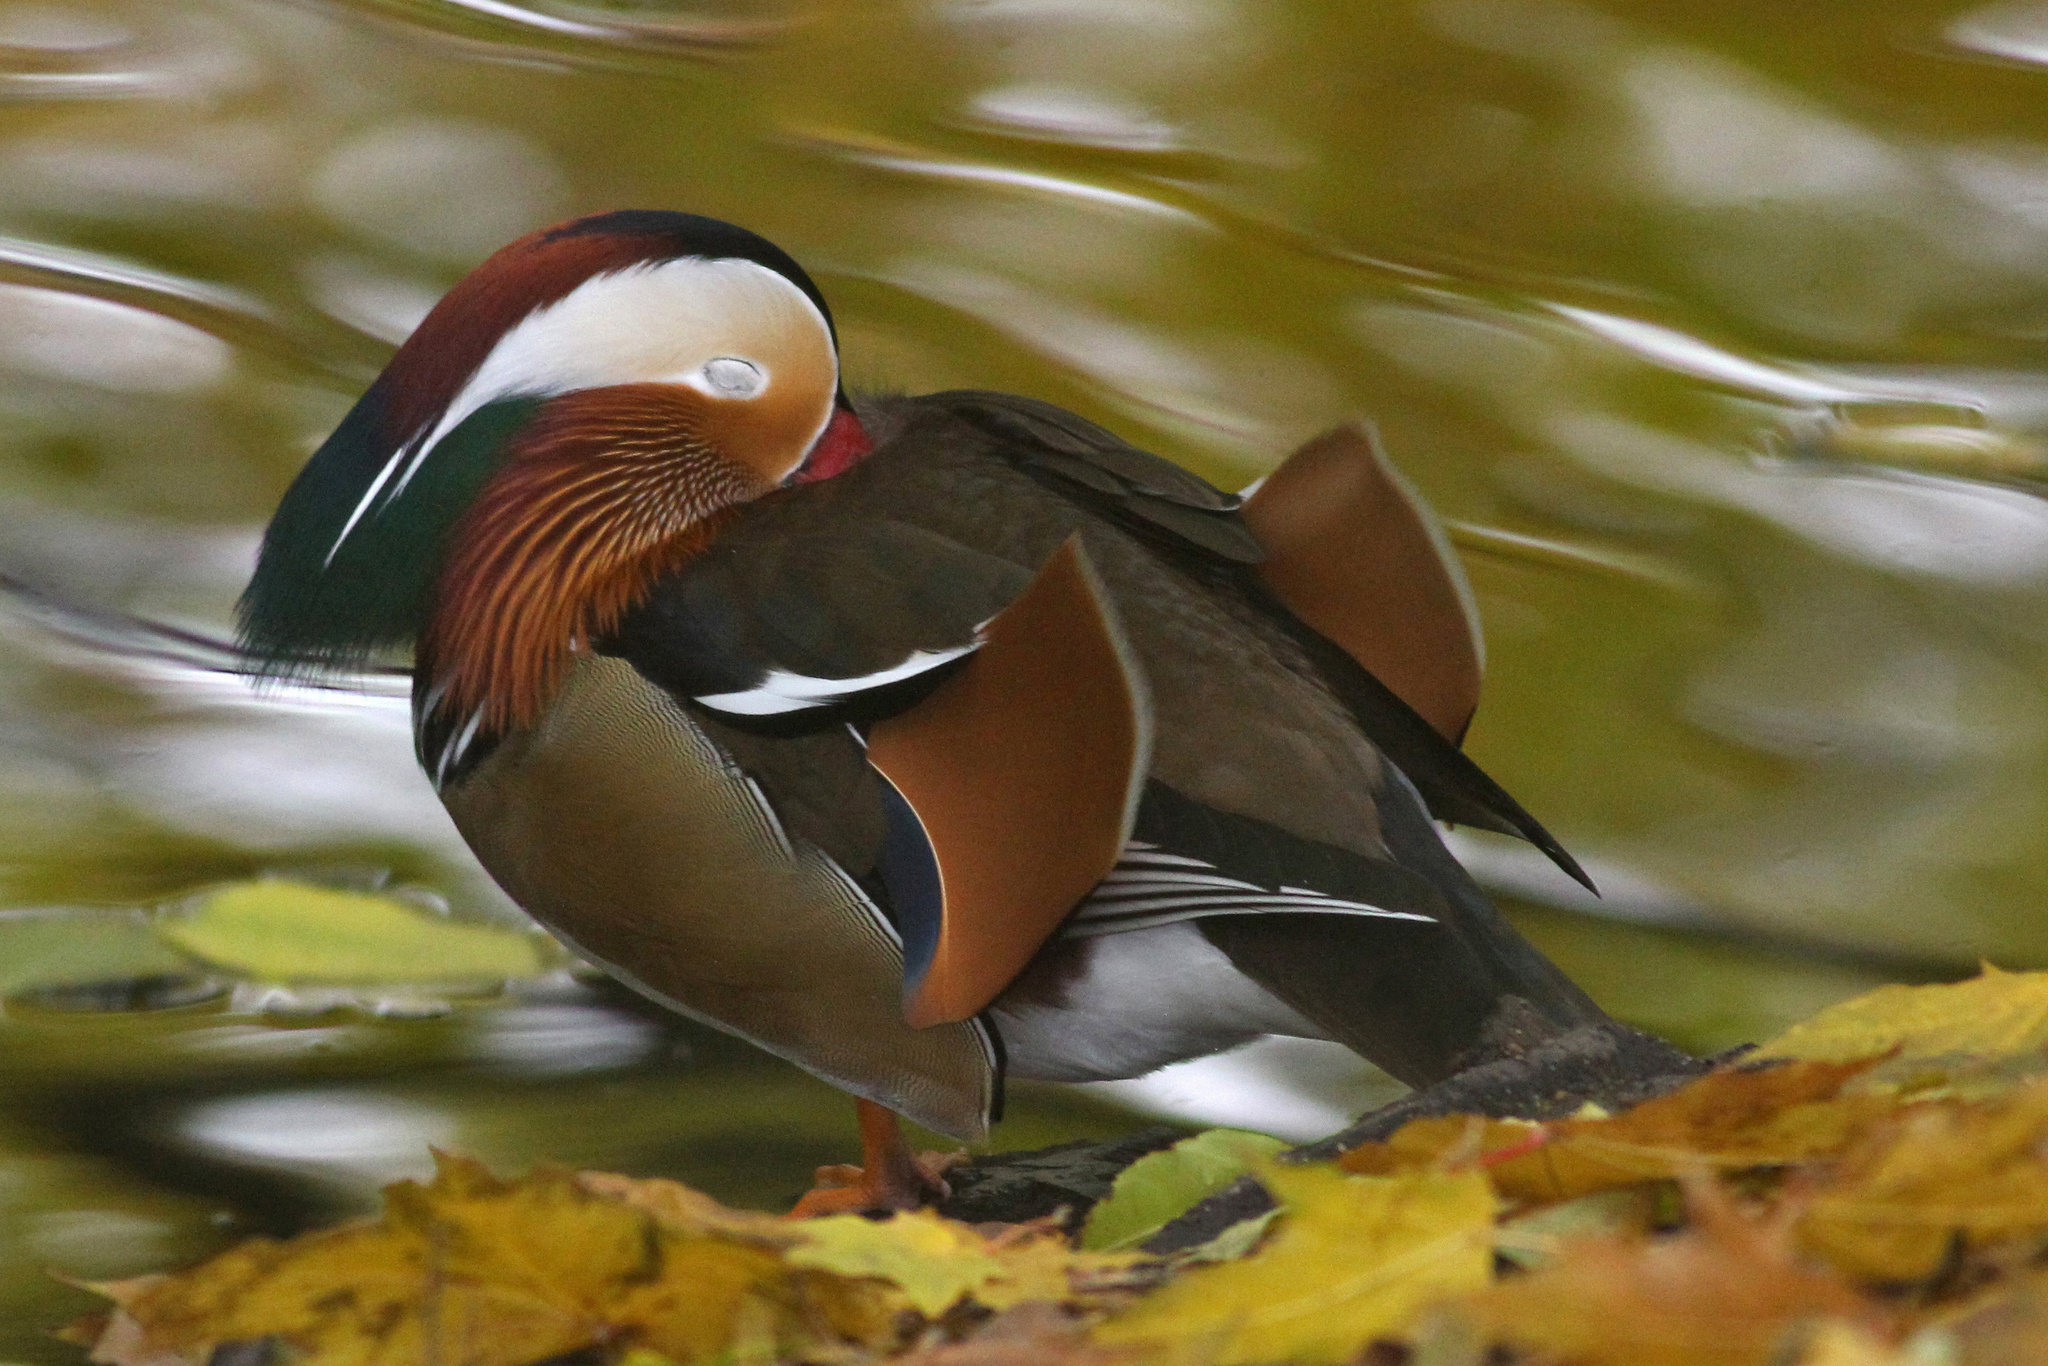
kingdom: Animalia
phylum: Chordata
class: Aves
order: Anseriformes
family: Anatidae
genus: Aix
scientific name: Aix galericulata
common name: Mandarin duck
